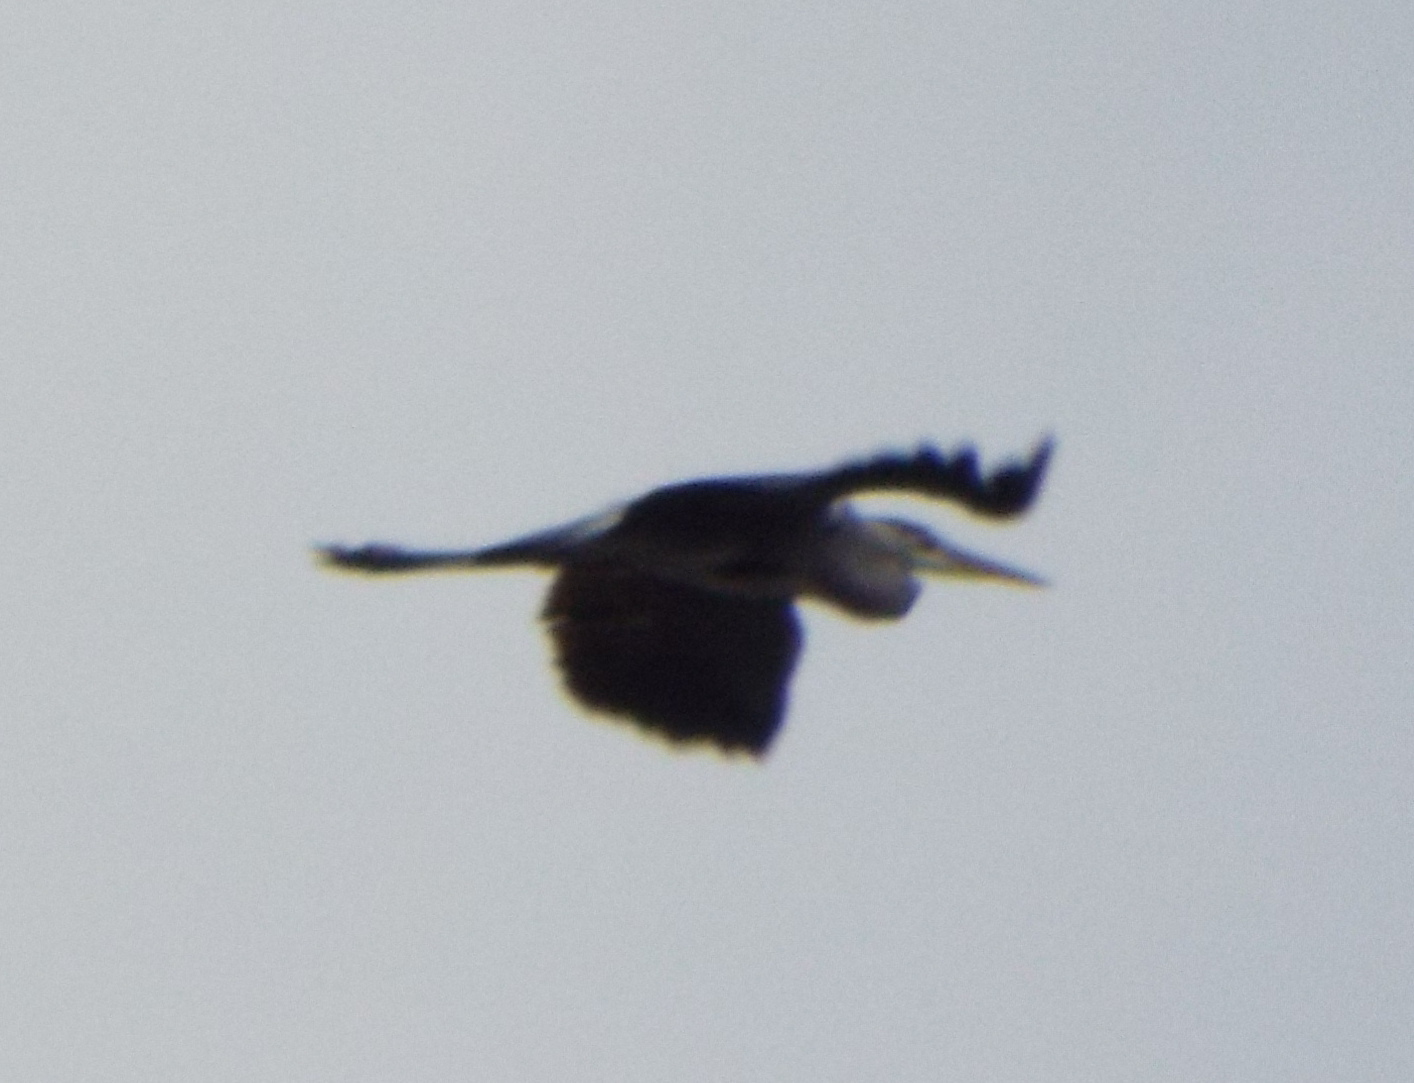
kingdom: Animalia
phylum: Chordata
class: Aves
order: Pelecaniformes
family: Ardeidae
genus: Ardea
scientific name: Ardea cinerea
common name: Grey heron
